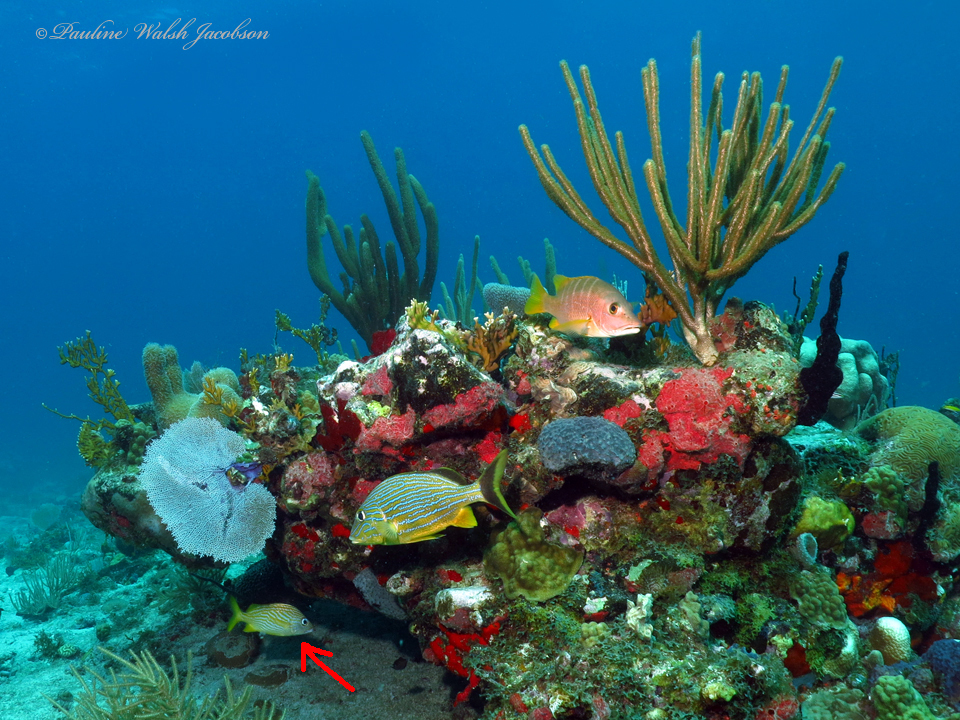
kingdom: Animalia
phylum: Chordata
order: Perciformes
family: Haemulidae
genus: Haemulon
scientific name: Haemulon flavolineatum
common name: French grunt
